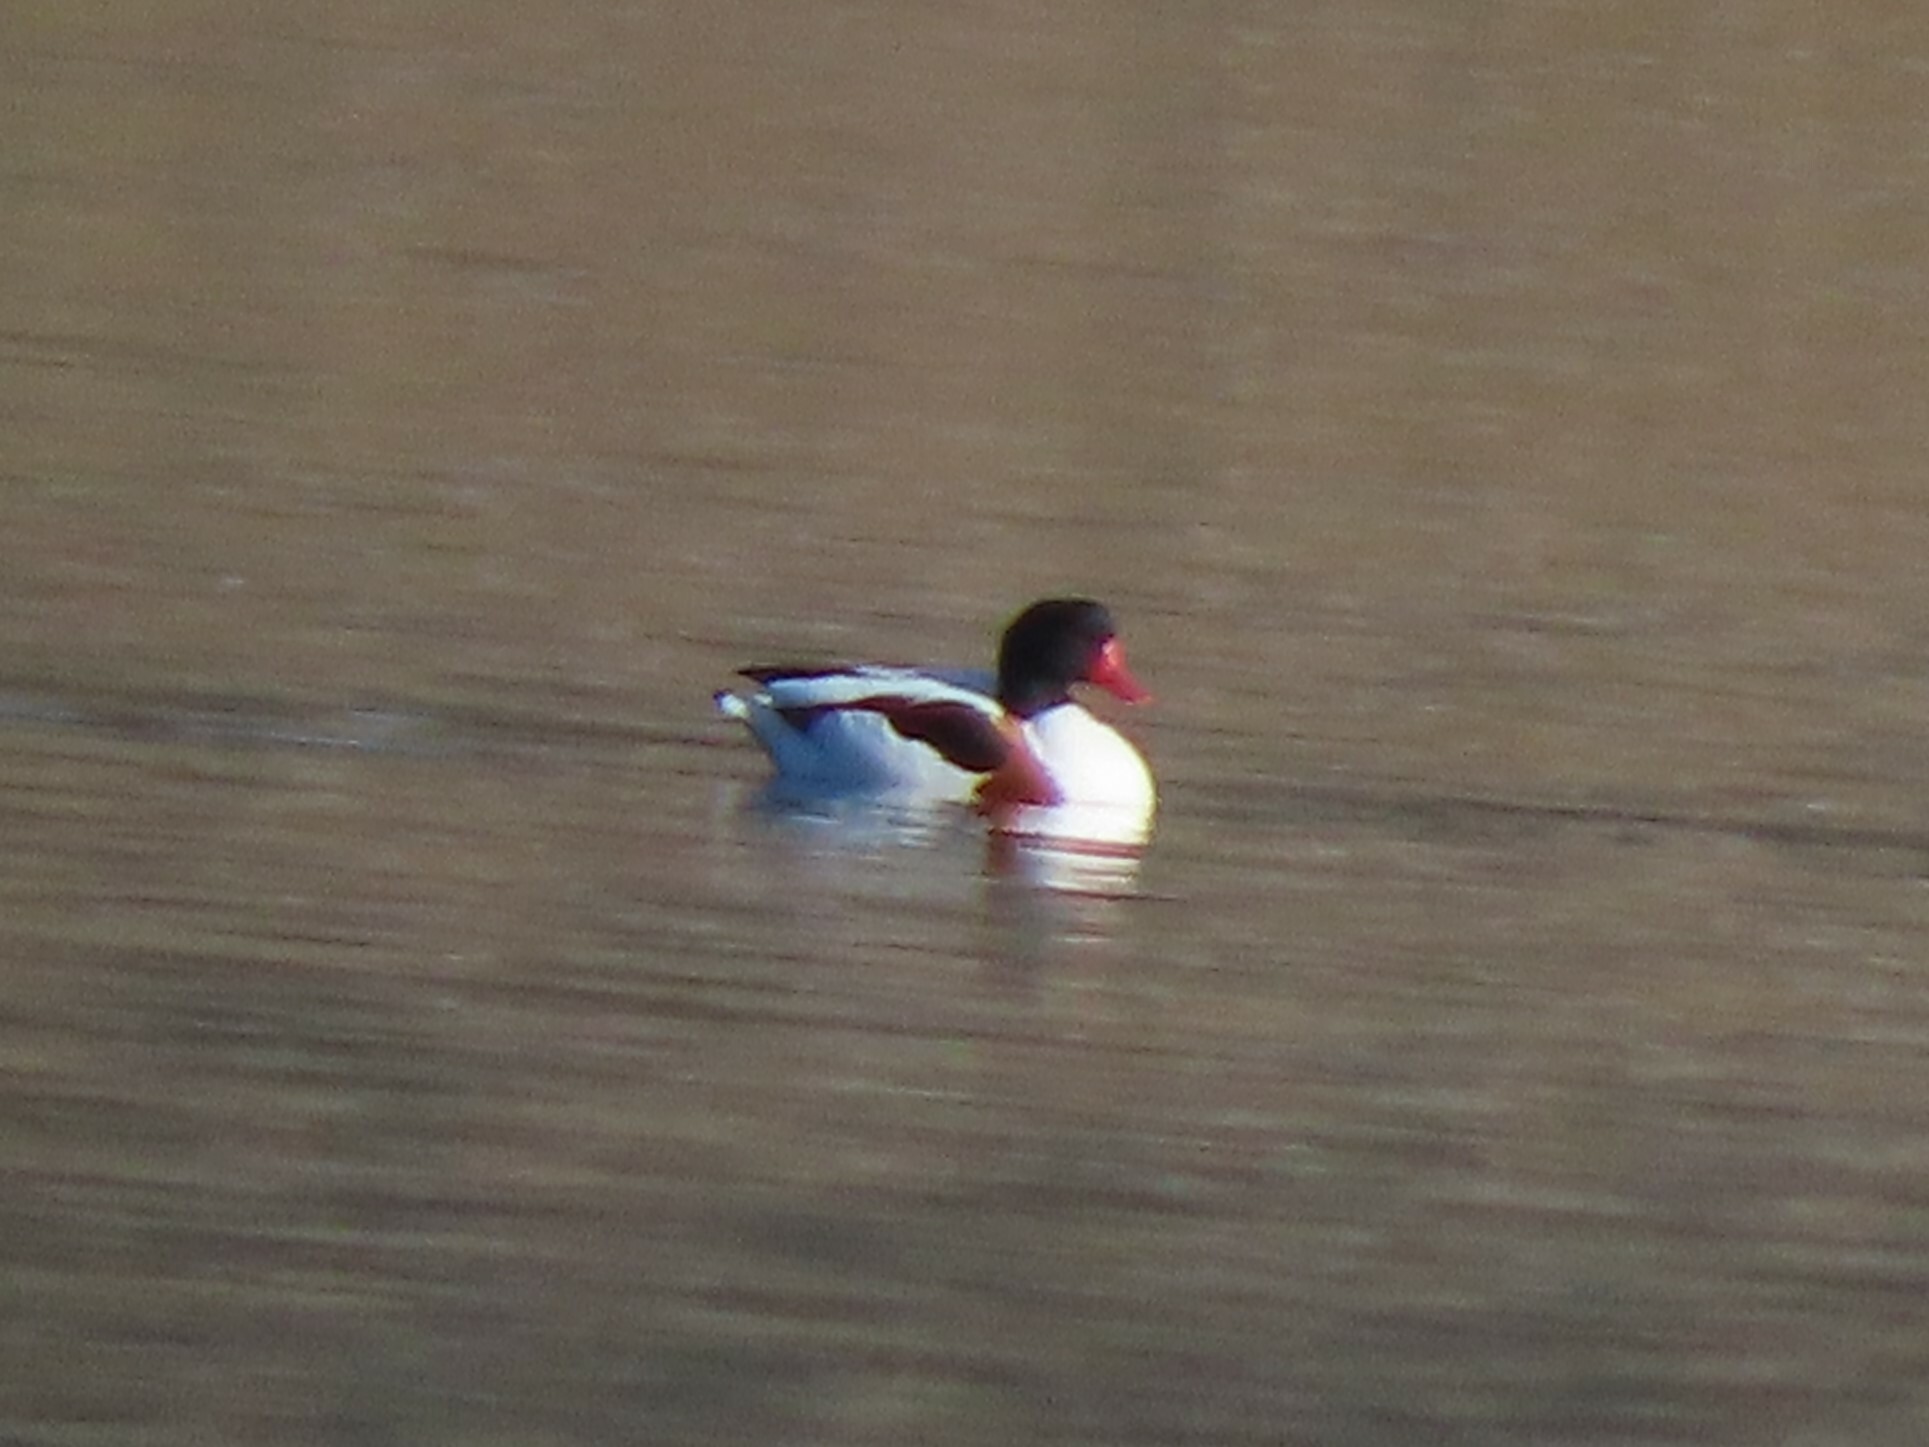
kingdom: Animalia
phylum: Chordata
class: Aves
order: Anseriformes
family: Anatidae
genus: Tadorna
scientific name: Tadorna tadorna
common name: Common shelduck
